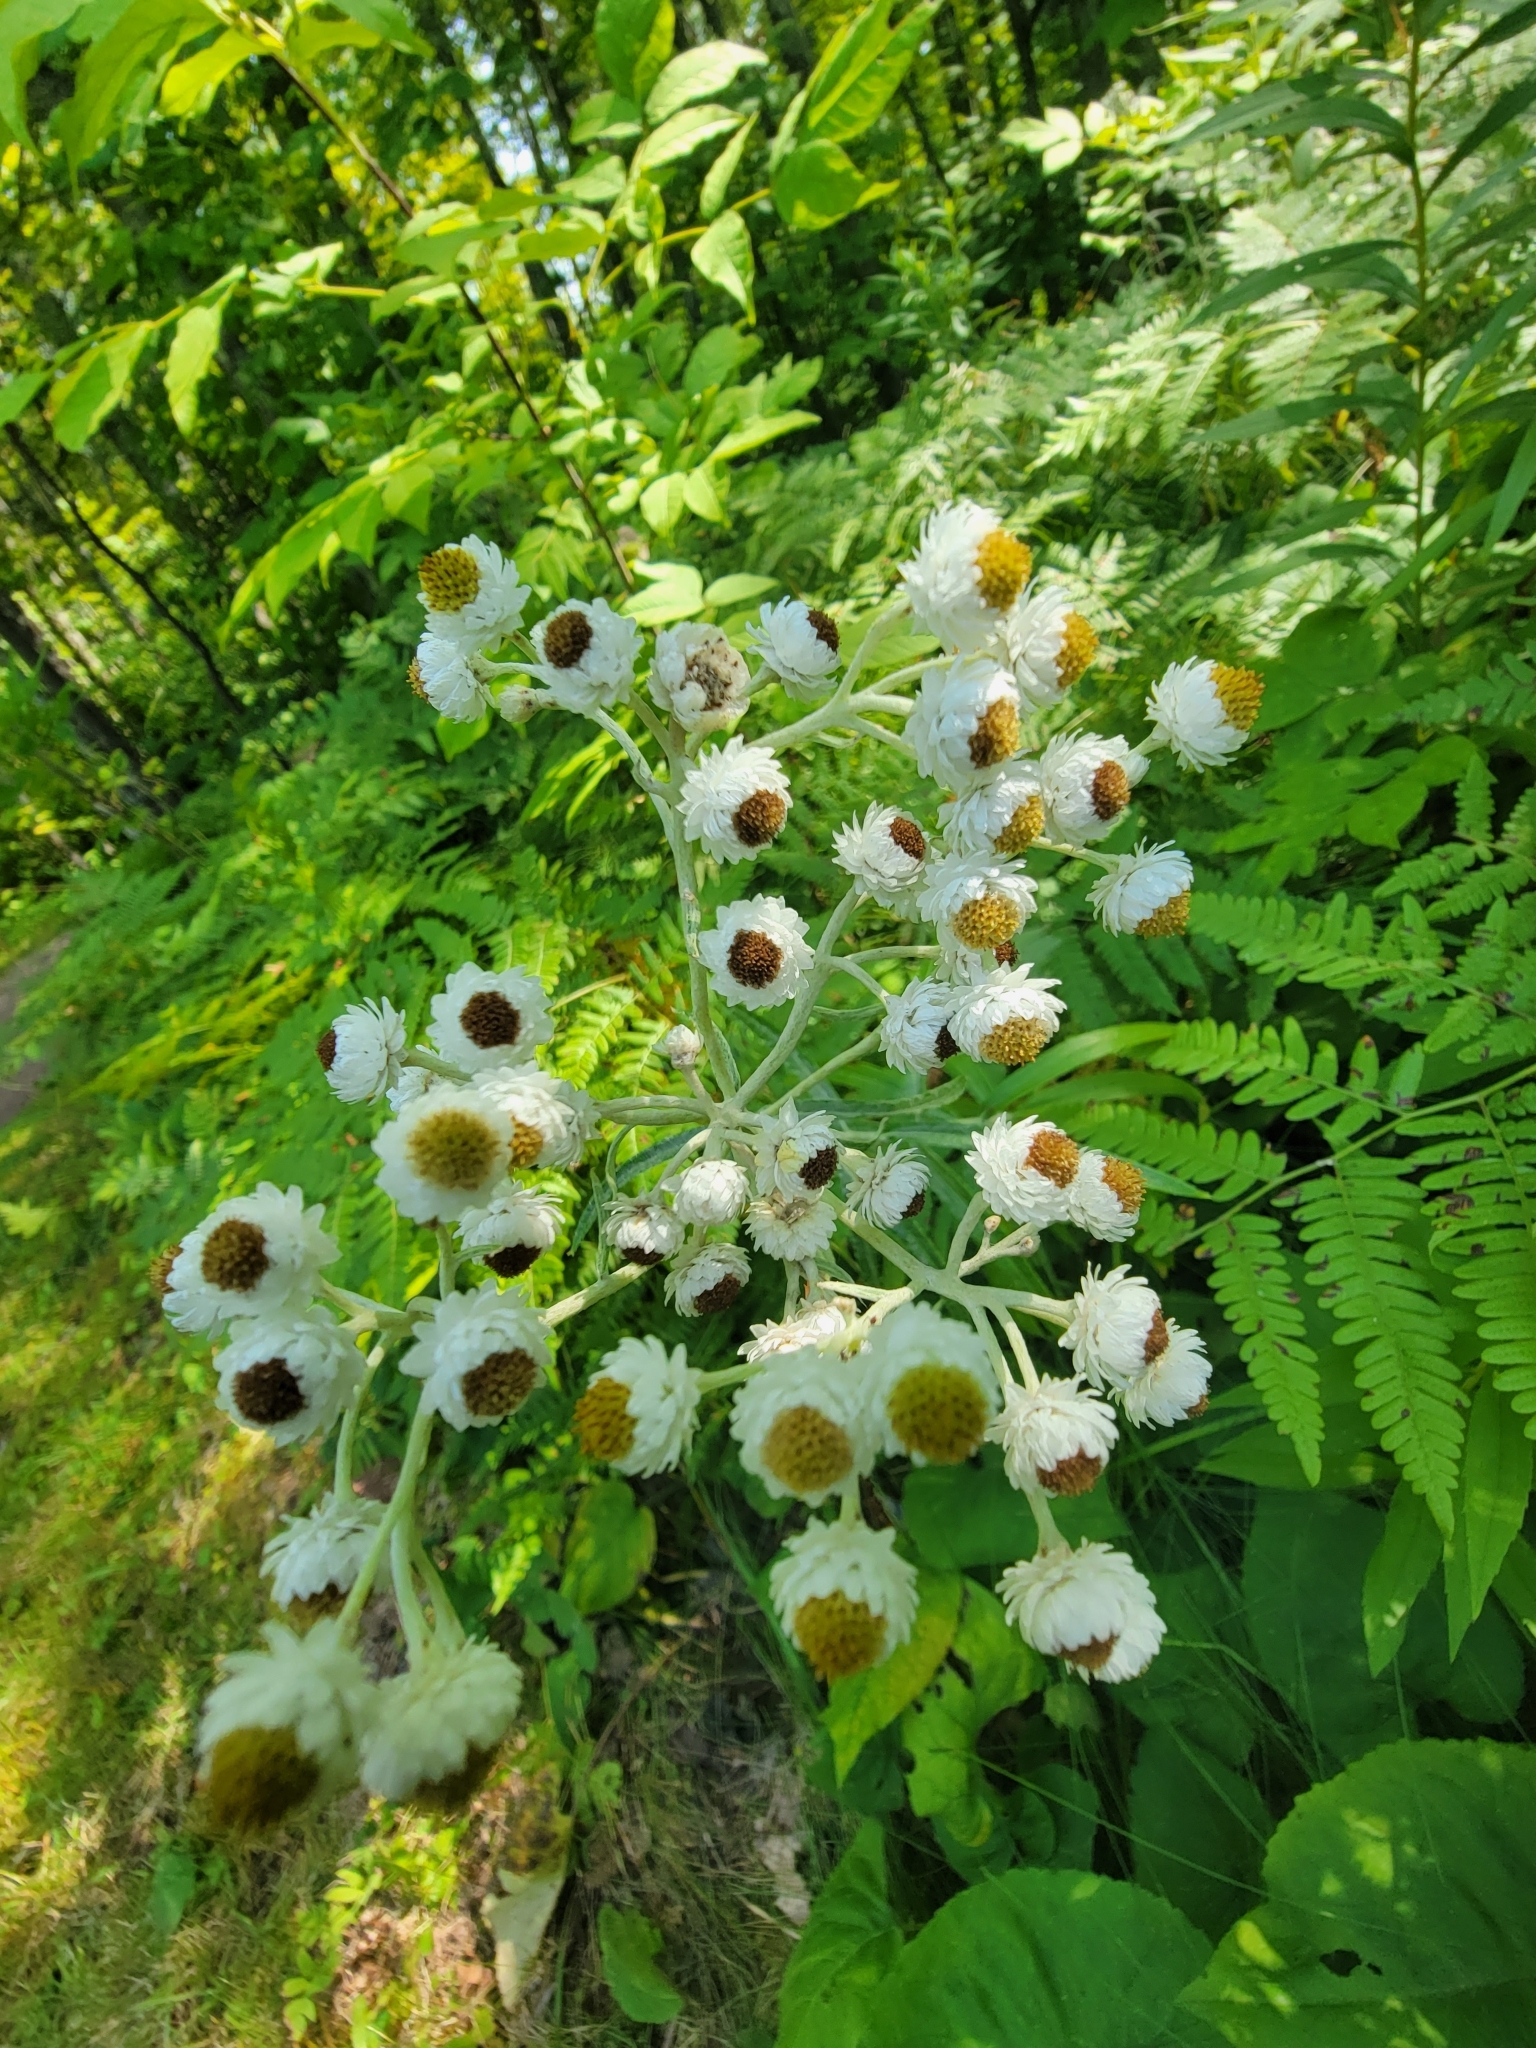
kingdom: Plantae
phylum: Tracheophyta
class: Magnoliopsida
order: Asterales
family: Asteraceae
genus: Anaphalis
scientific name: Anaphalis margaritacea
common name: Pearly everlasting
